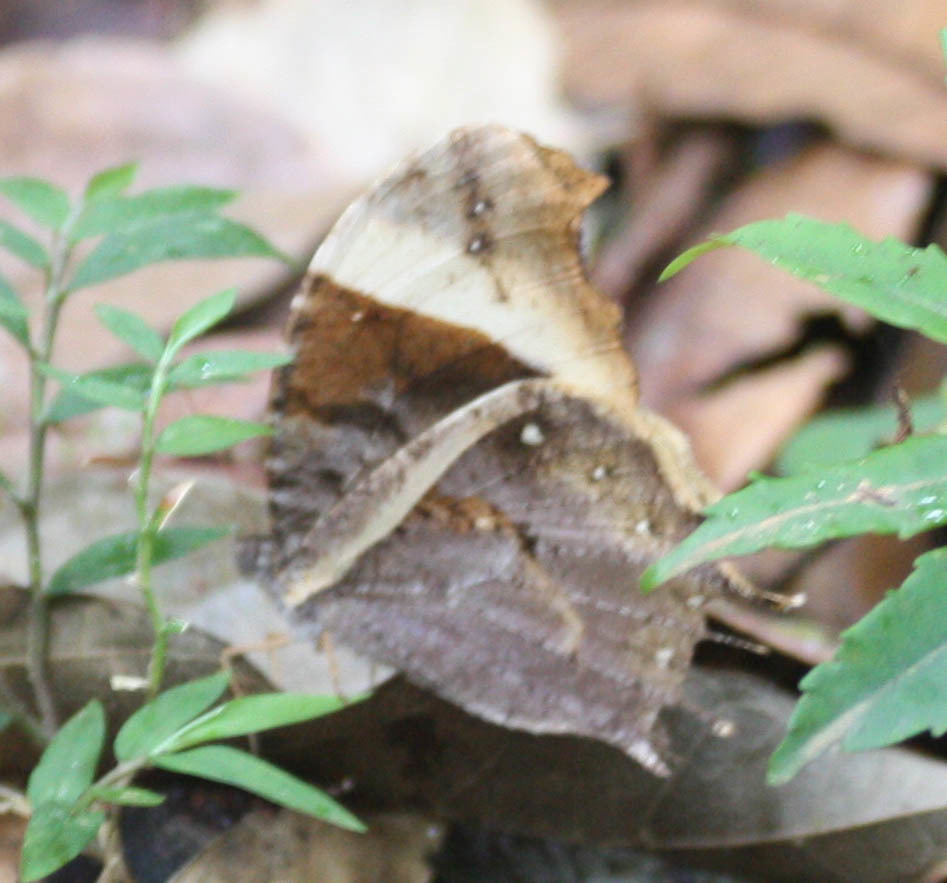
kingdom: Animalia
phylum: Arthropoda
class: Insecta
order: Lepidoptera
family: Nymphalidae
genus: Gnophodes
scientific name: Gnophodes parmeno
